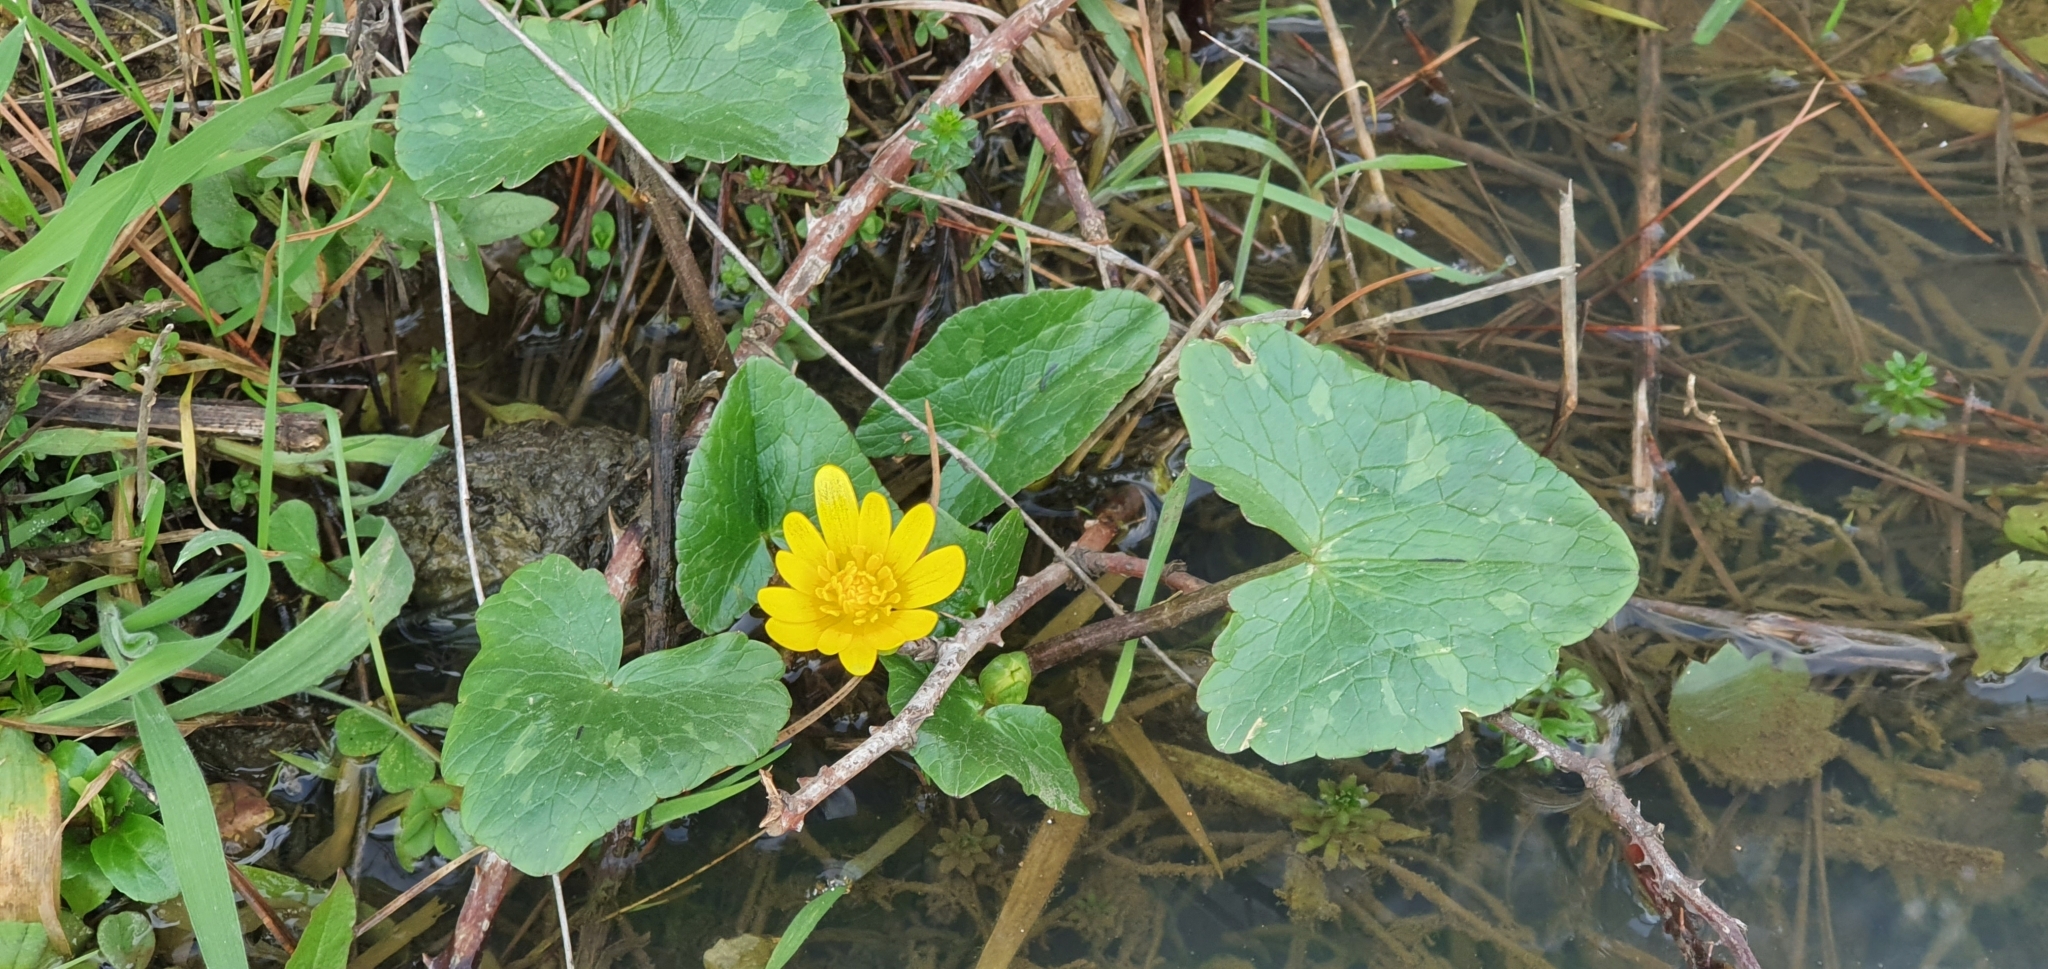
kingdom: Plantae
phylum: Tracheophyta
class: Magnoliopsida
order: Ranunculales
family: Ranunculaceae
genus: Ficaria
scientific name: Ficaria verna
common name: Lesser celandine
